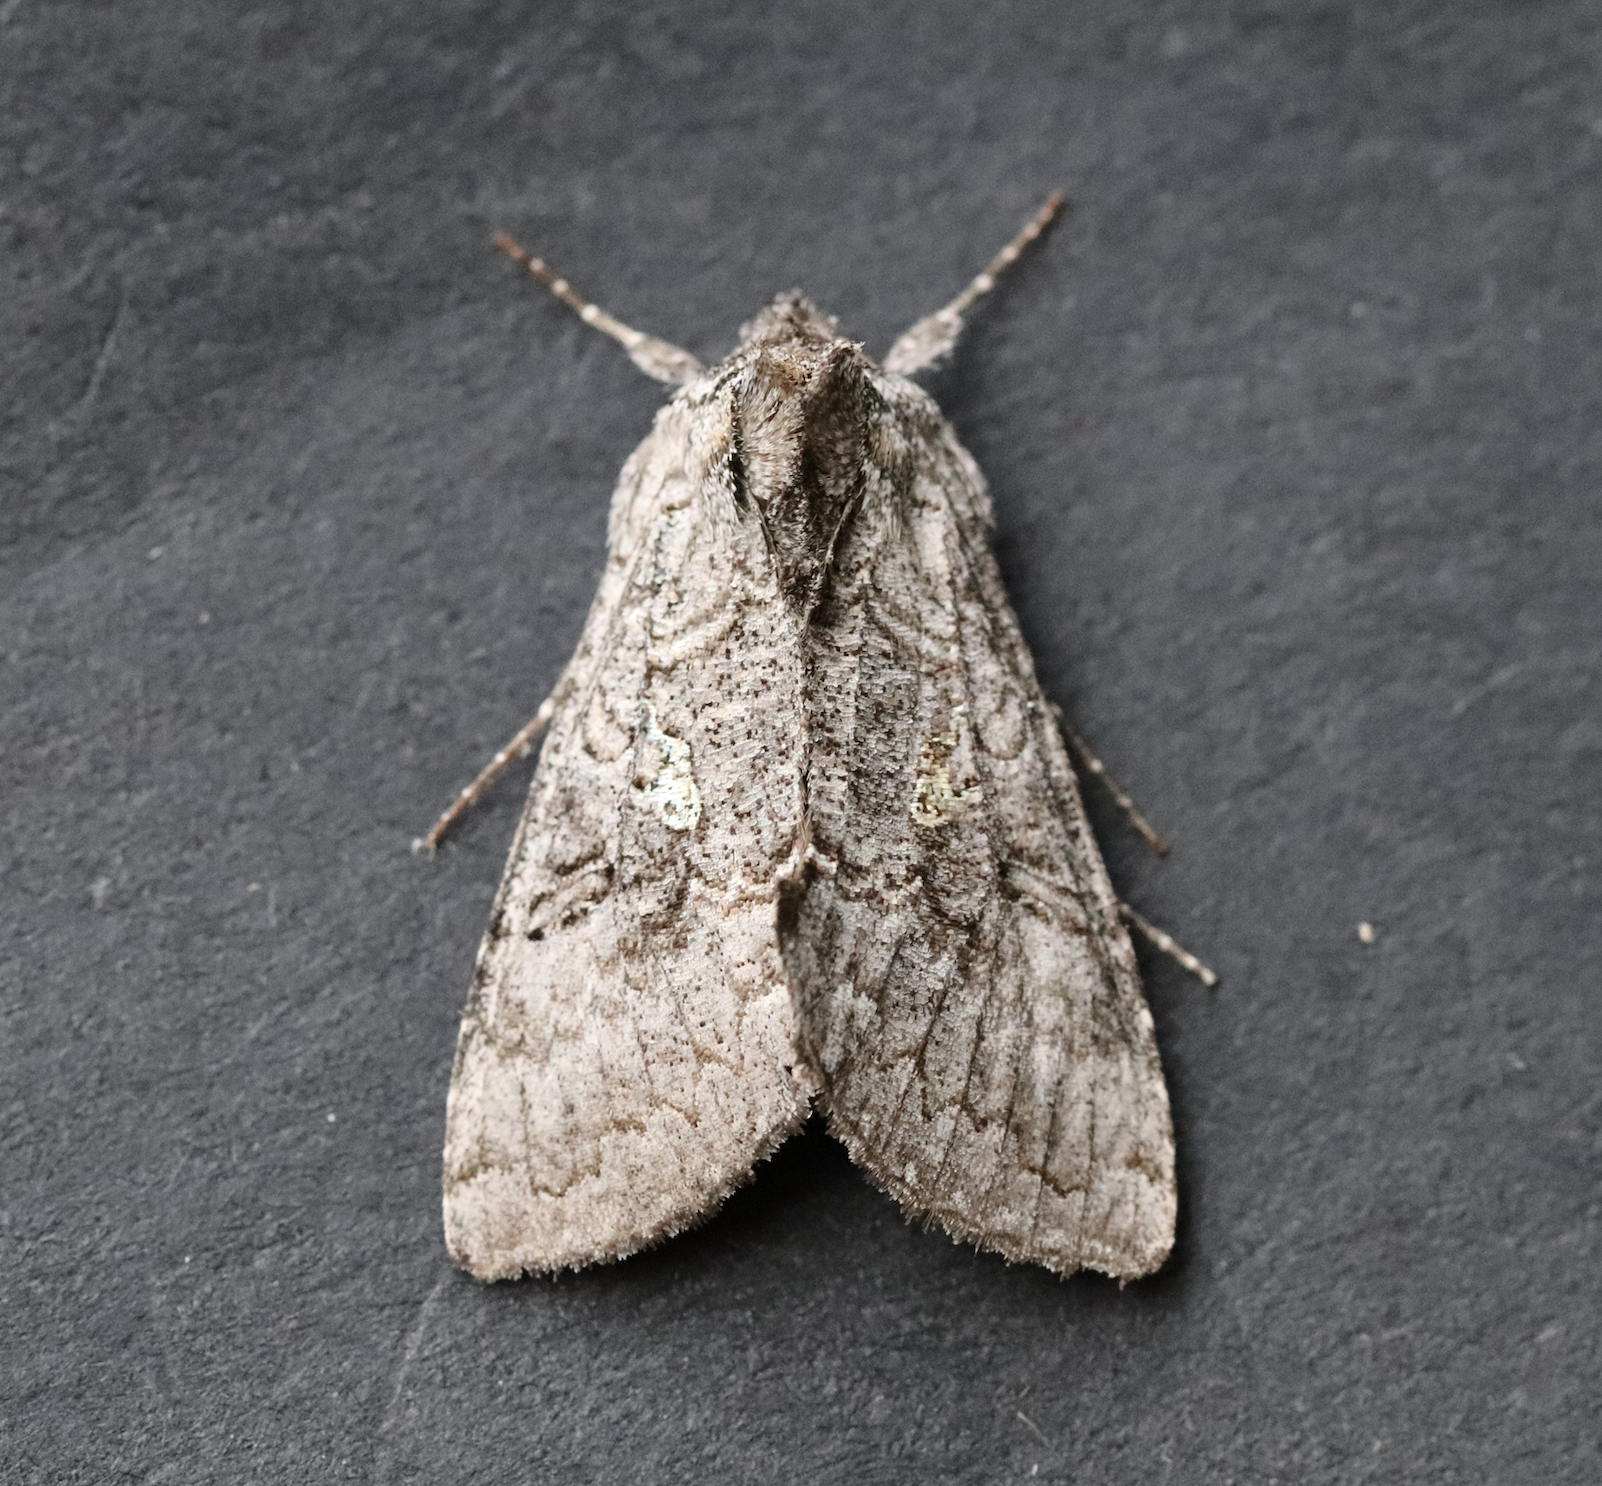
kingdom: Animalia
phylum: Arthropoda
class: Insecta
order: Lepidoptera
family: Noctuidae
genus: Syngrapha
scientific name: Syngrapha viridisigma
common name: Spruce false looper moth
